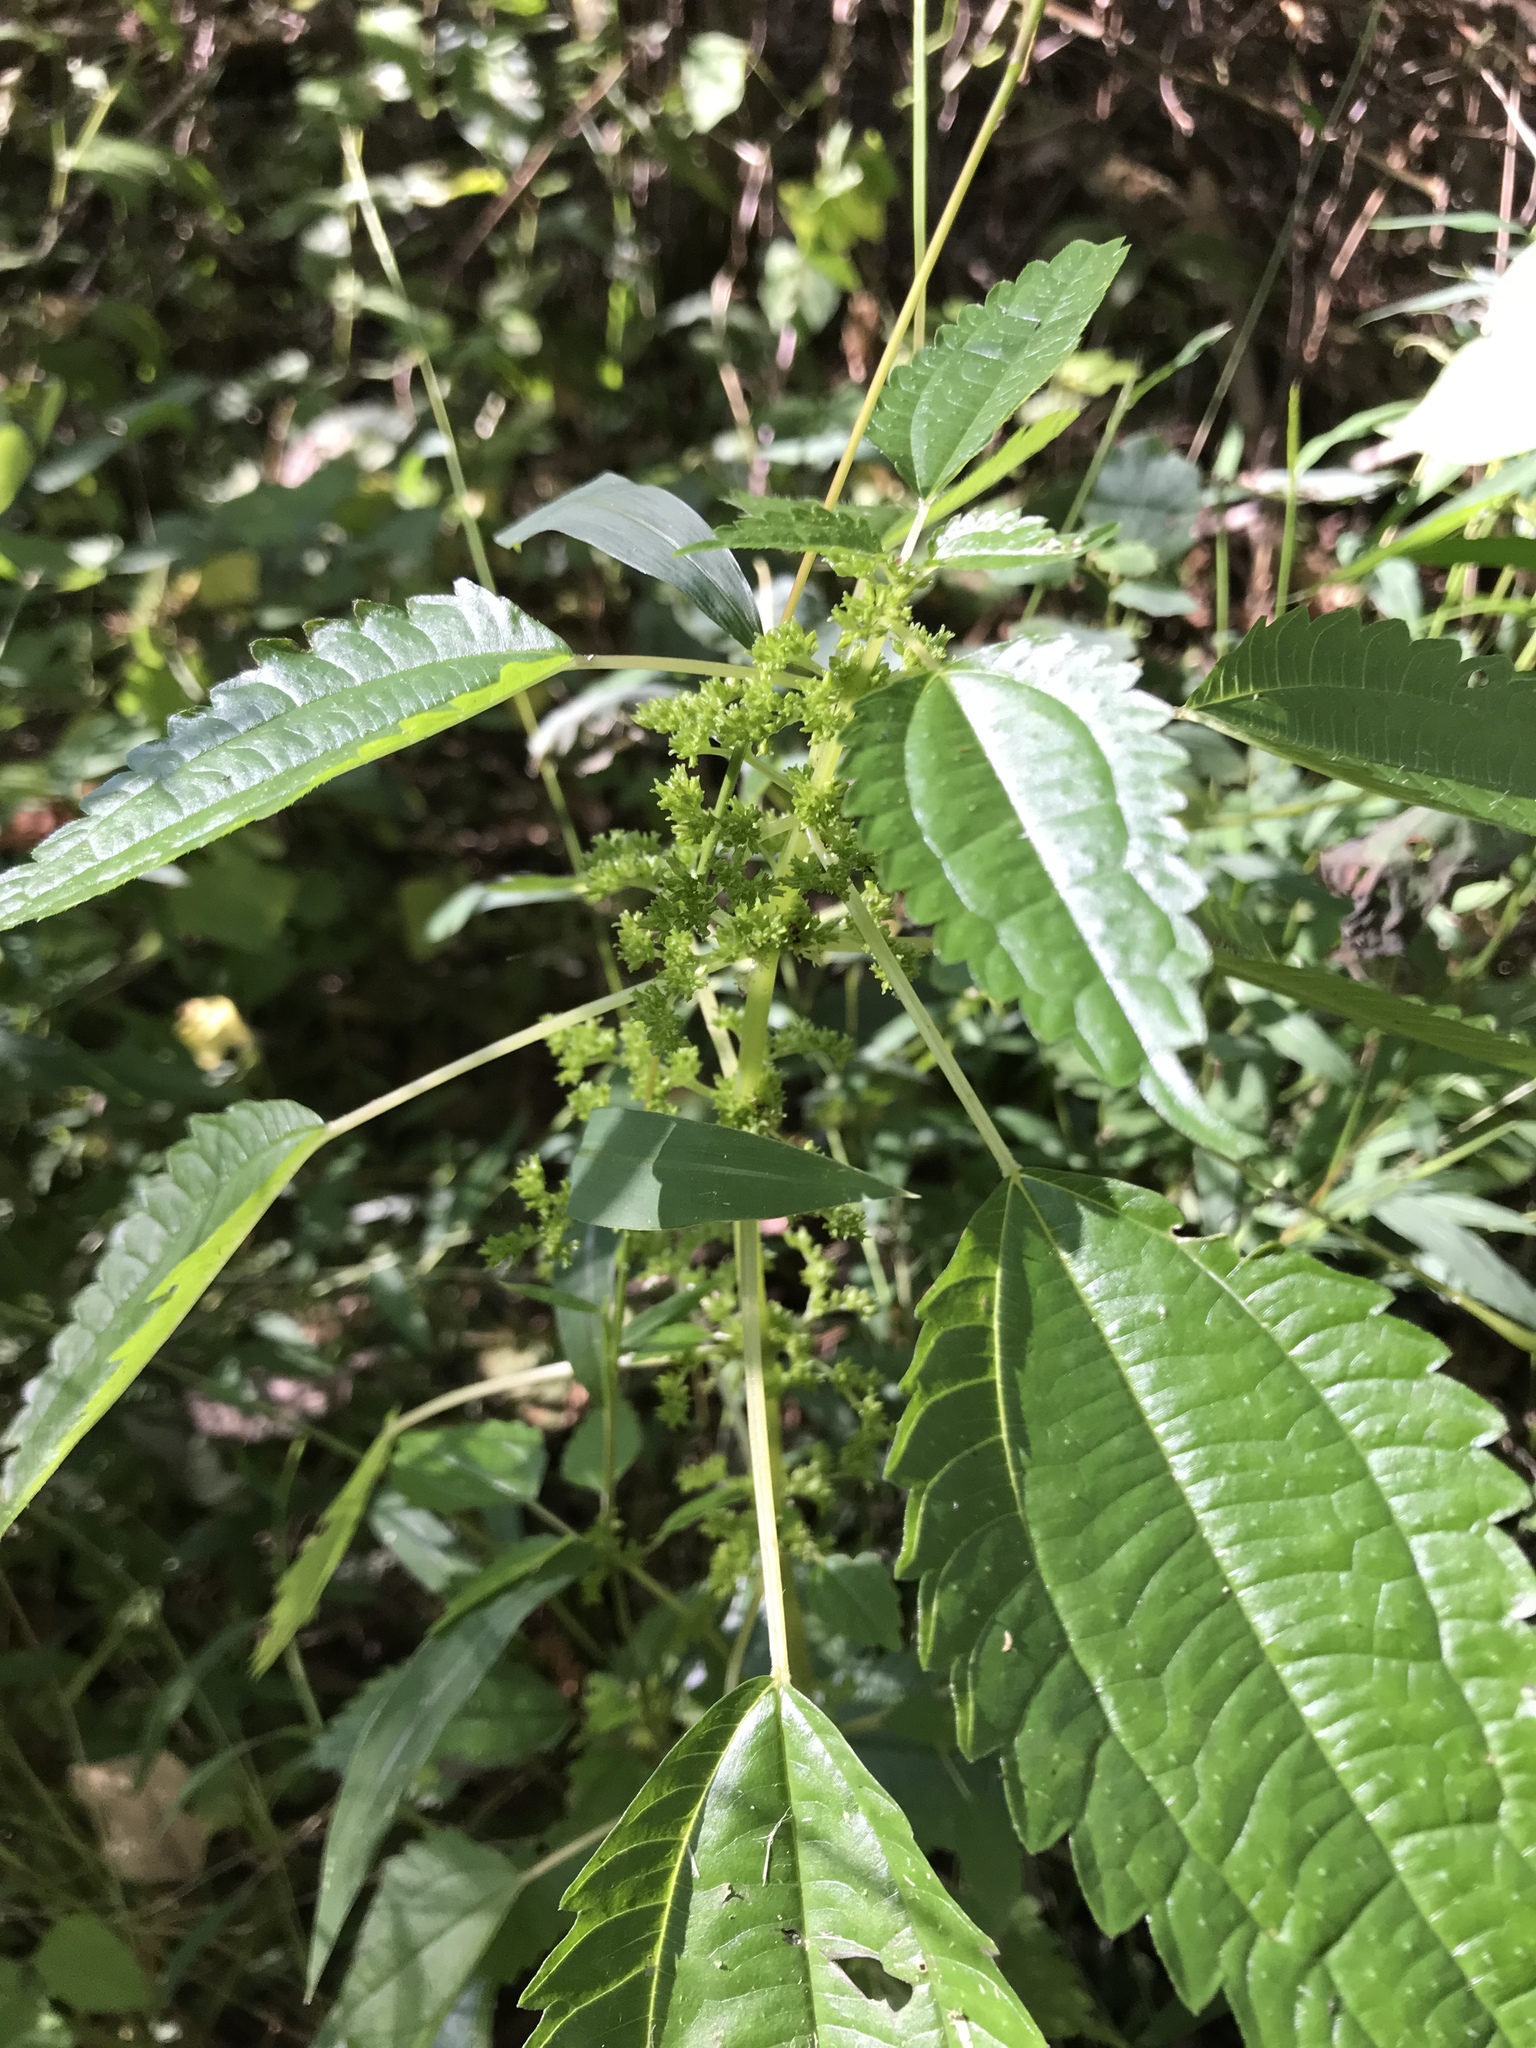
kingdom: Plantae
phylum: Tracheophyta
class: Magnoliopsida
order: Rosales
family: Urticaceae
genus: Pilea
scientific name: Pilea pumila
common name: Clearweed
